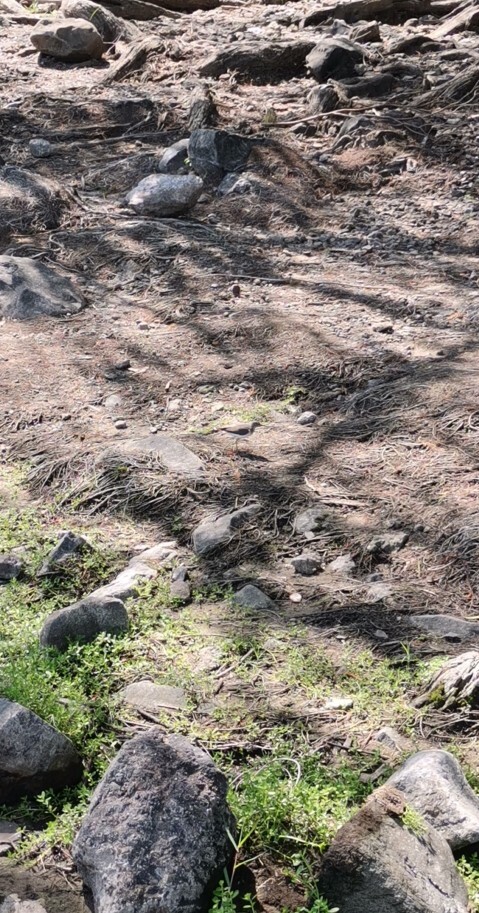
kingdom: Animalia
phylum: Chordata
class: Aves
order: Charadriiformes
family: Scolopacidae
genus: Actitis
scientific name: Actitis macularius
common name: Spotted sandpiper
